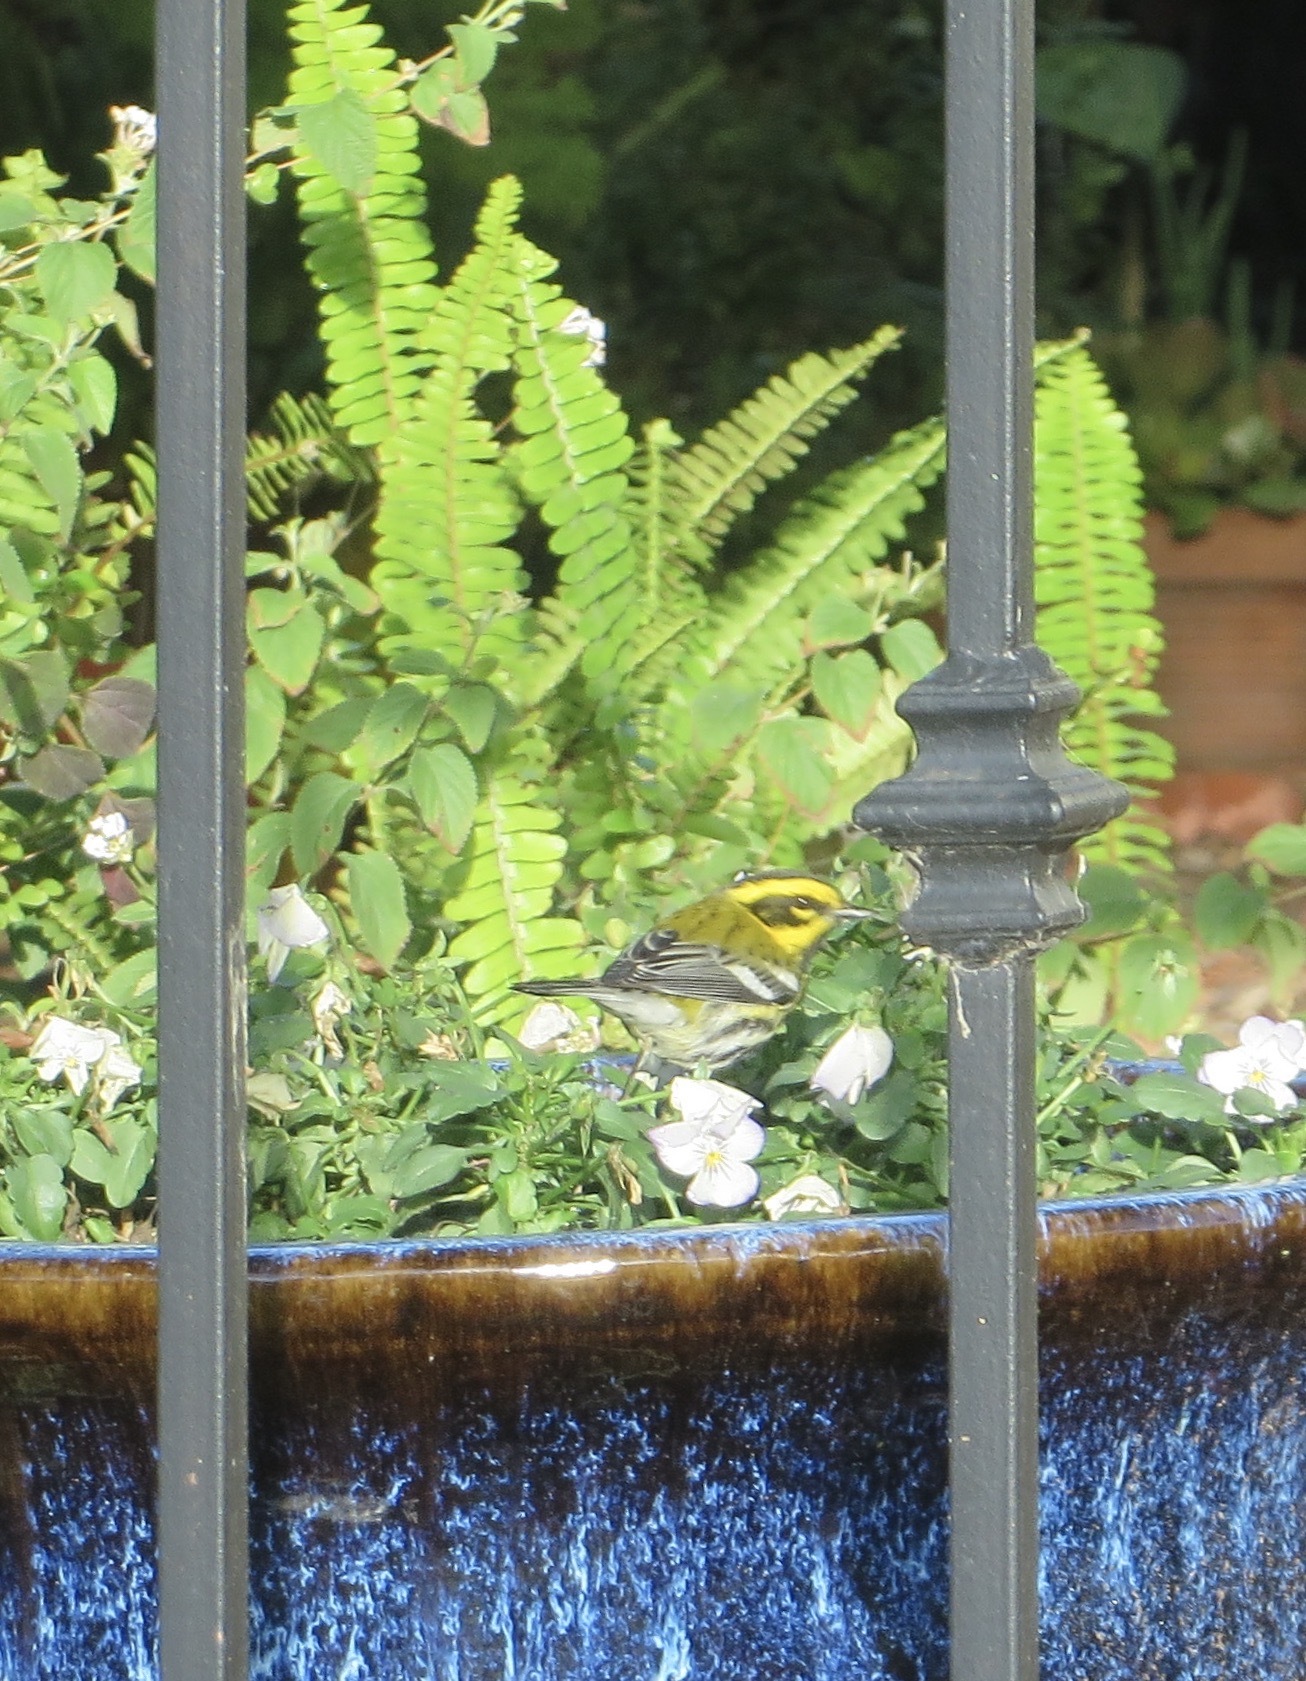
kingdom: Animalia
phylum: Chordata
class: Aves
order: Passeriformes
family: Parulidae
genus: Setophaga
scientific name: Setophaga townsendi
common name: Townsend's warbler
